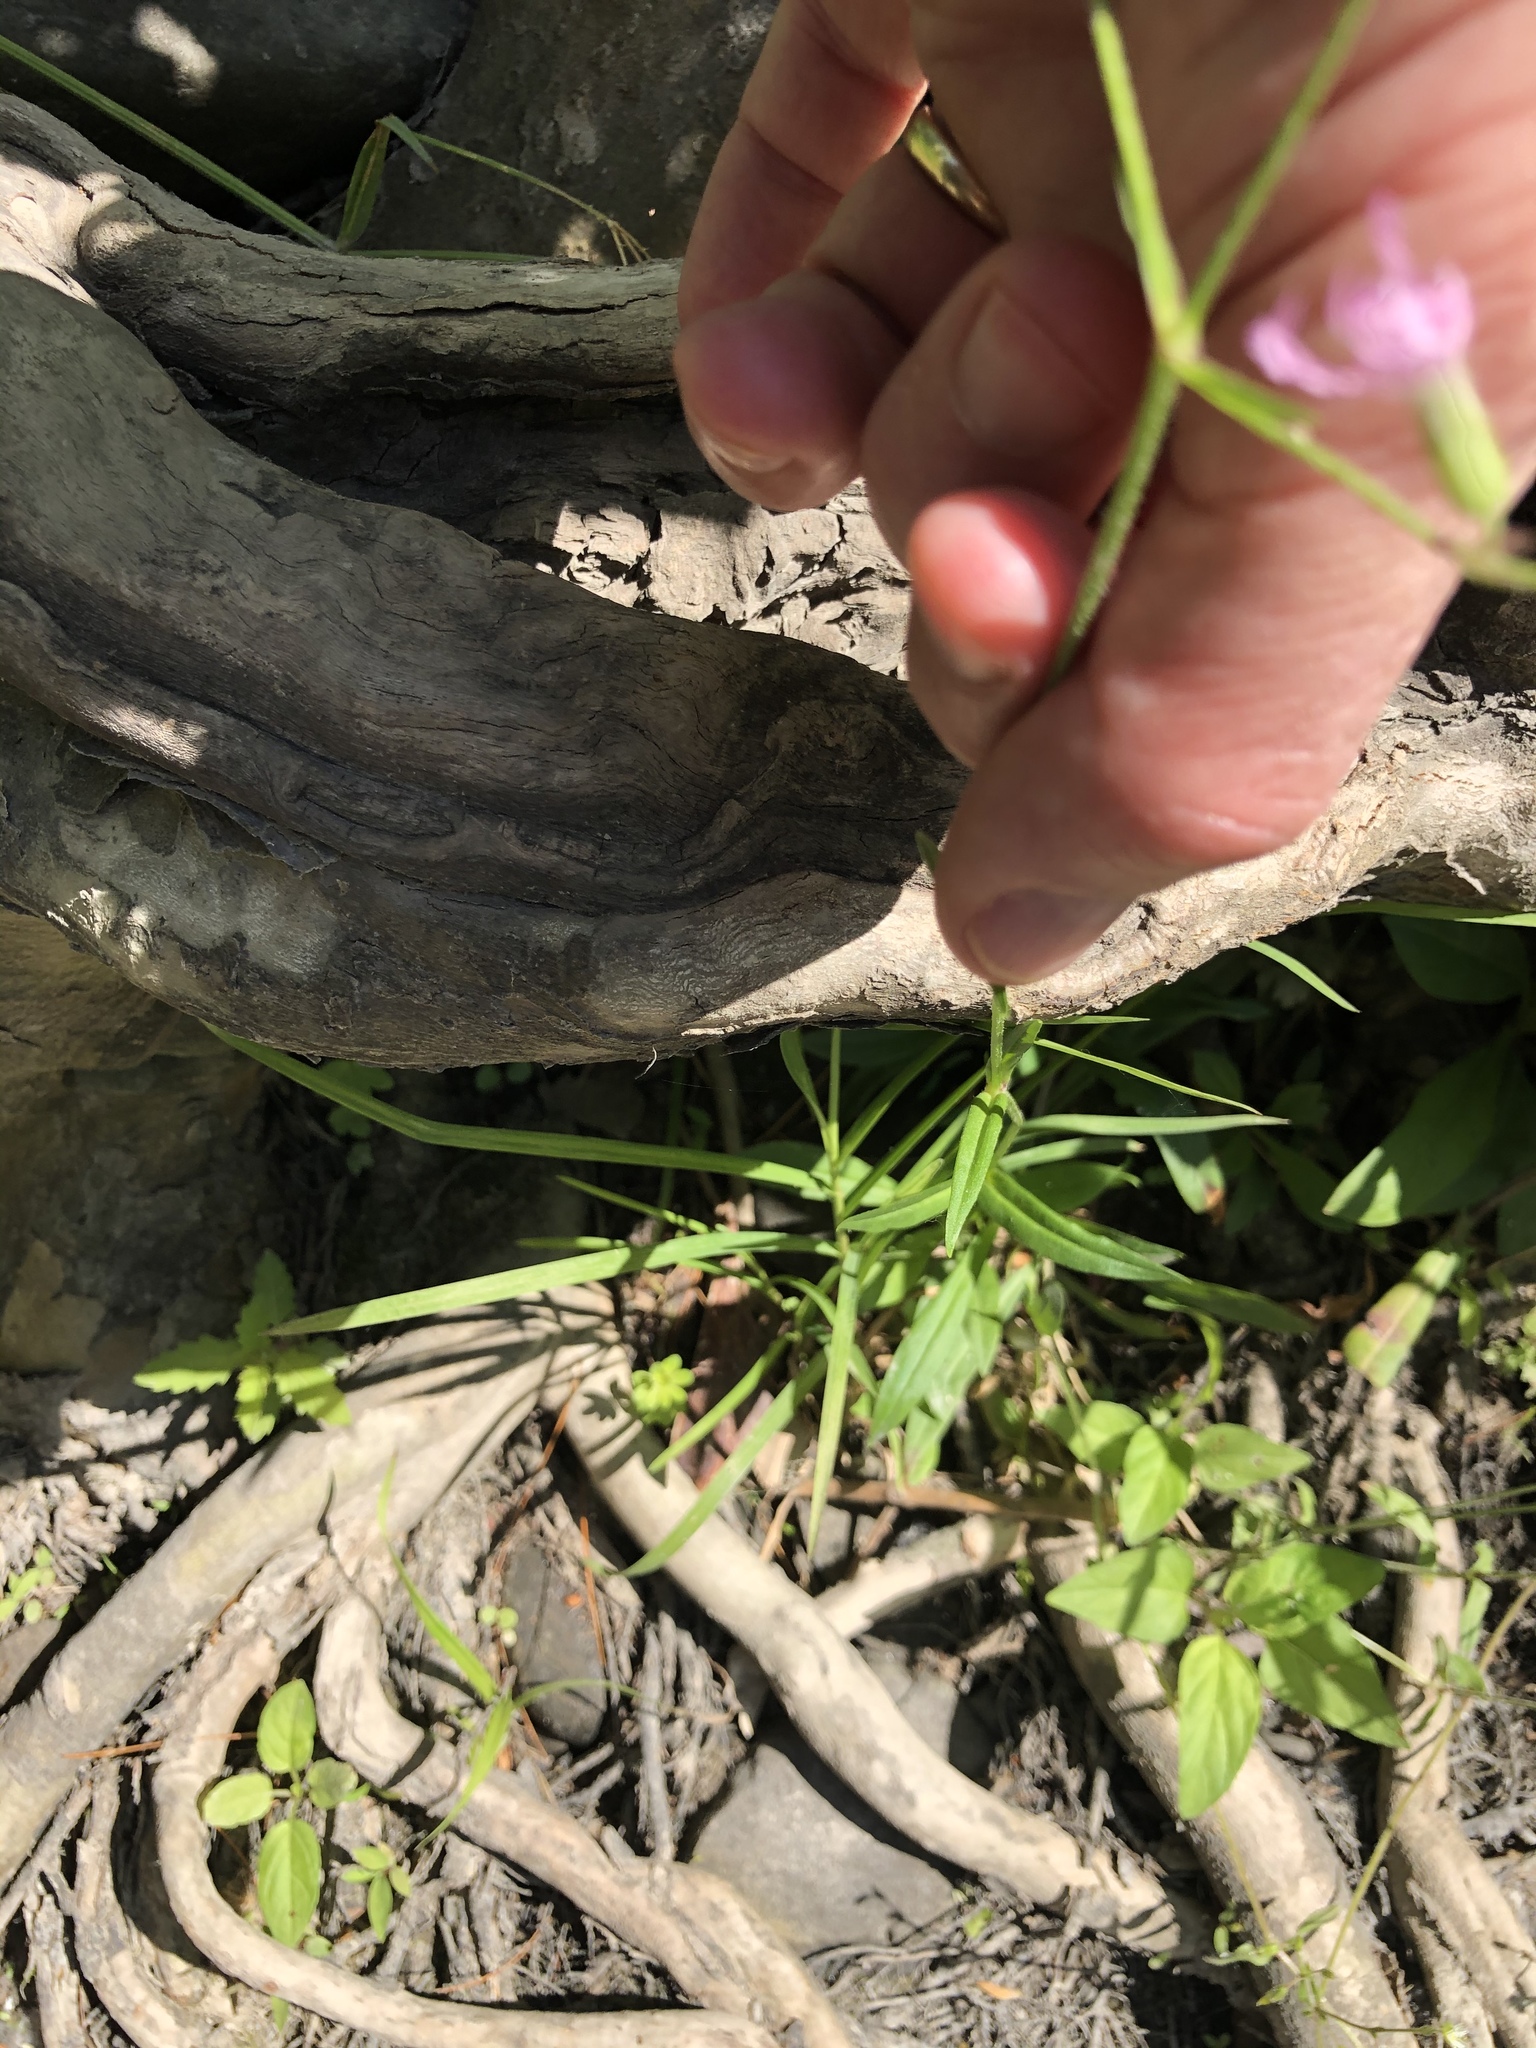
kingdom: Plantae
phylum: Tracheophyta
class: Magnoliopsida
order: Caryophyllales
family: Caryophyllaceae
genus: Silene
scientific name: Silene flos-cuculi
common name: Ragged-robin
